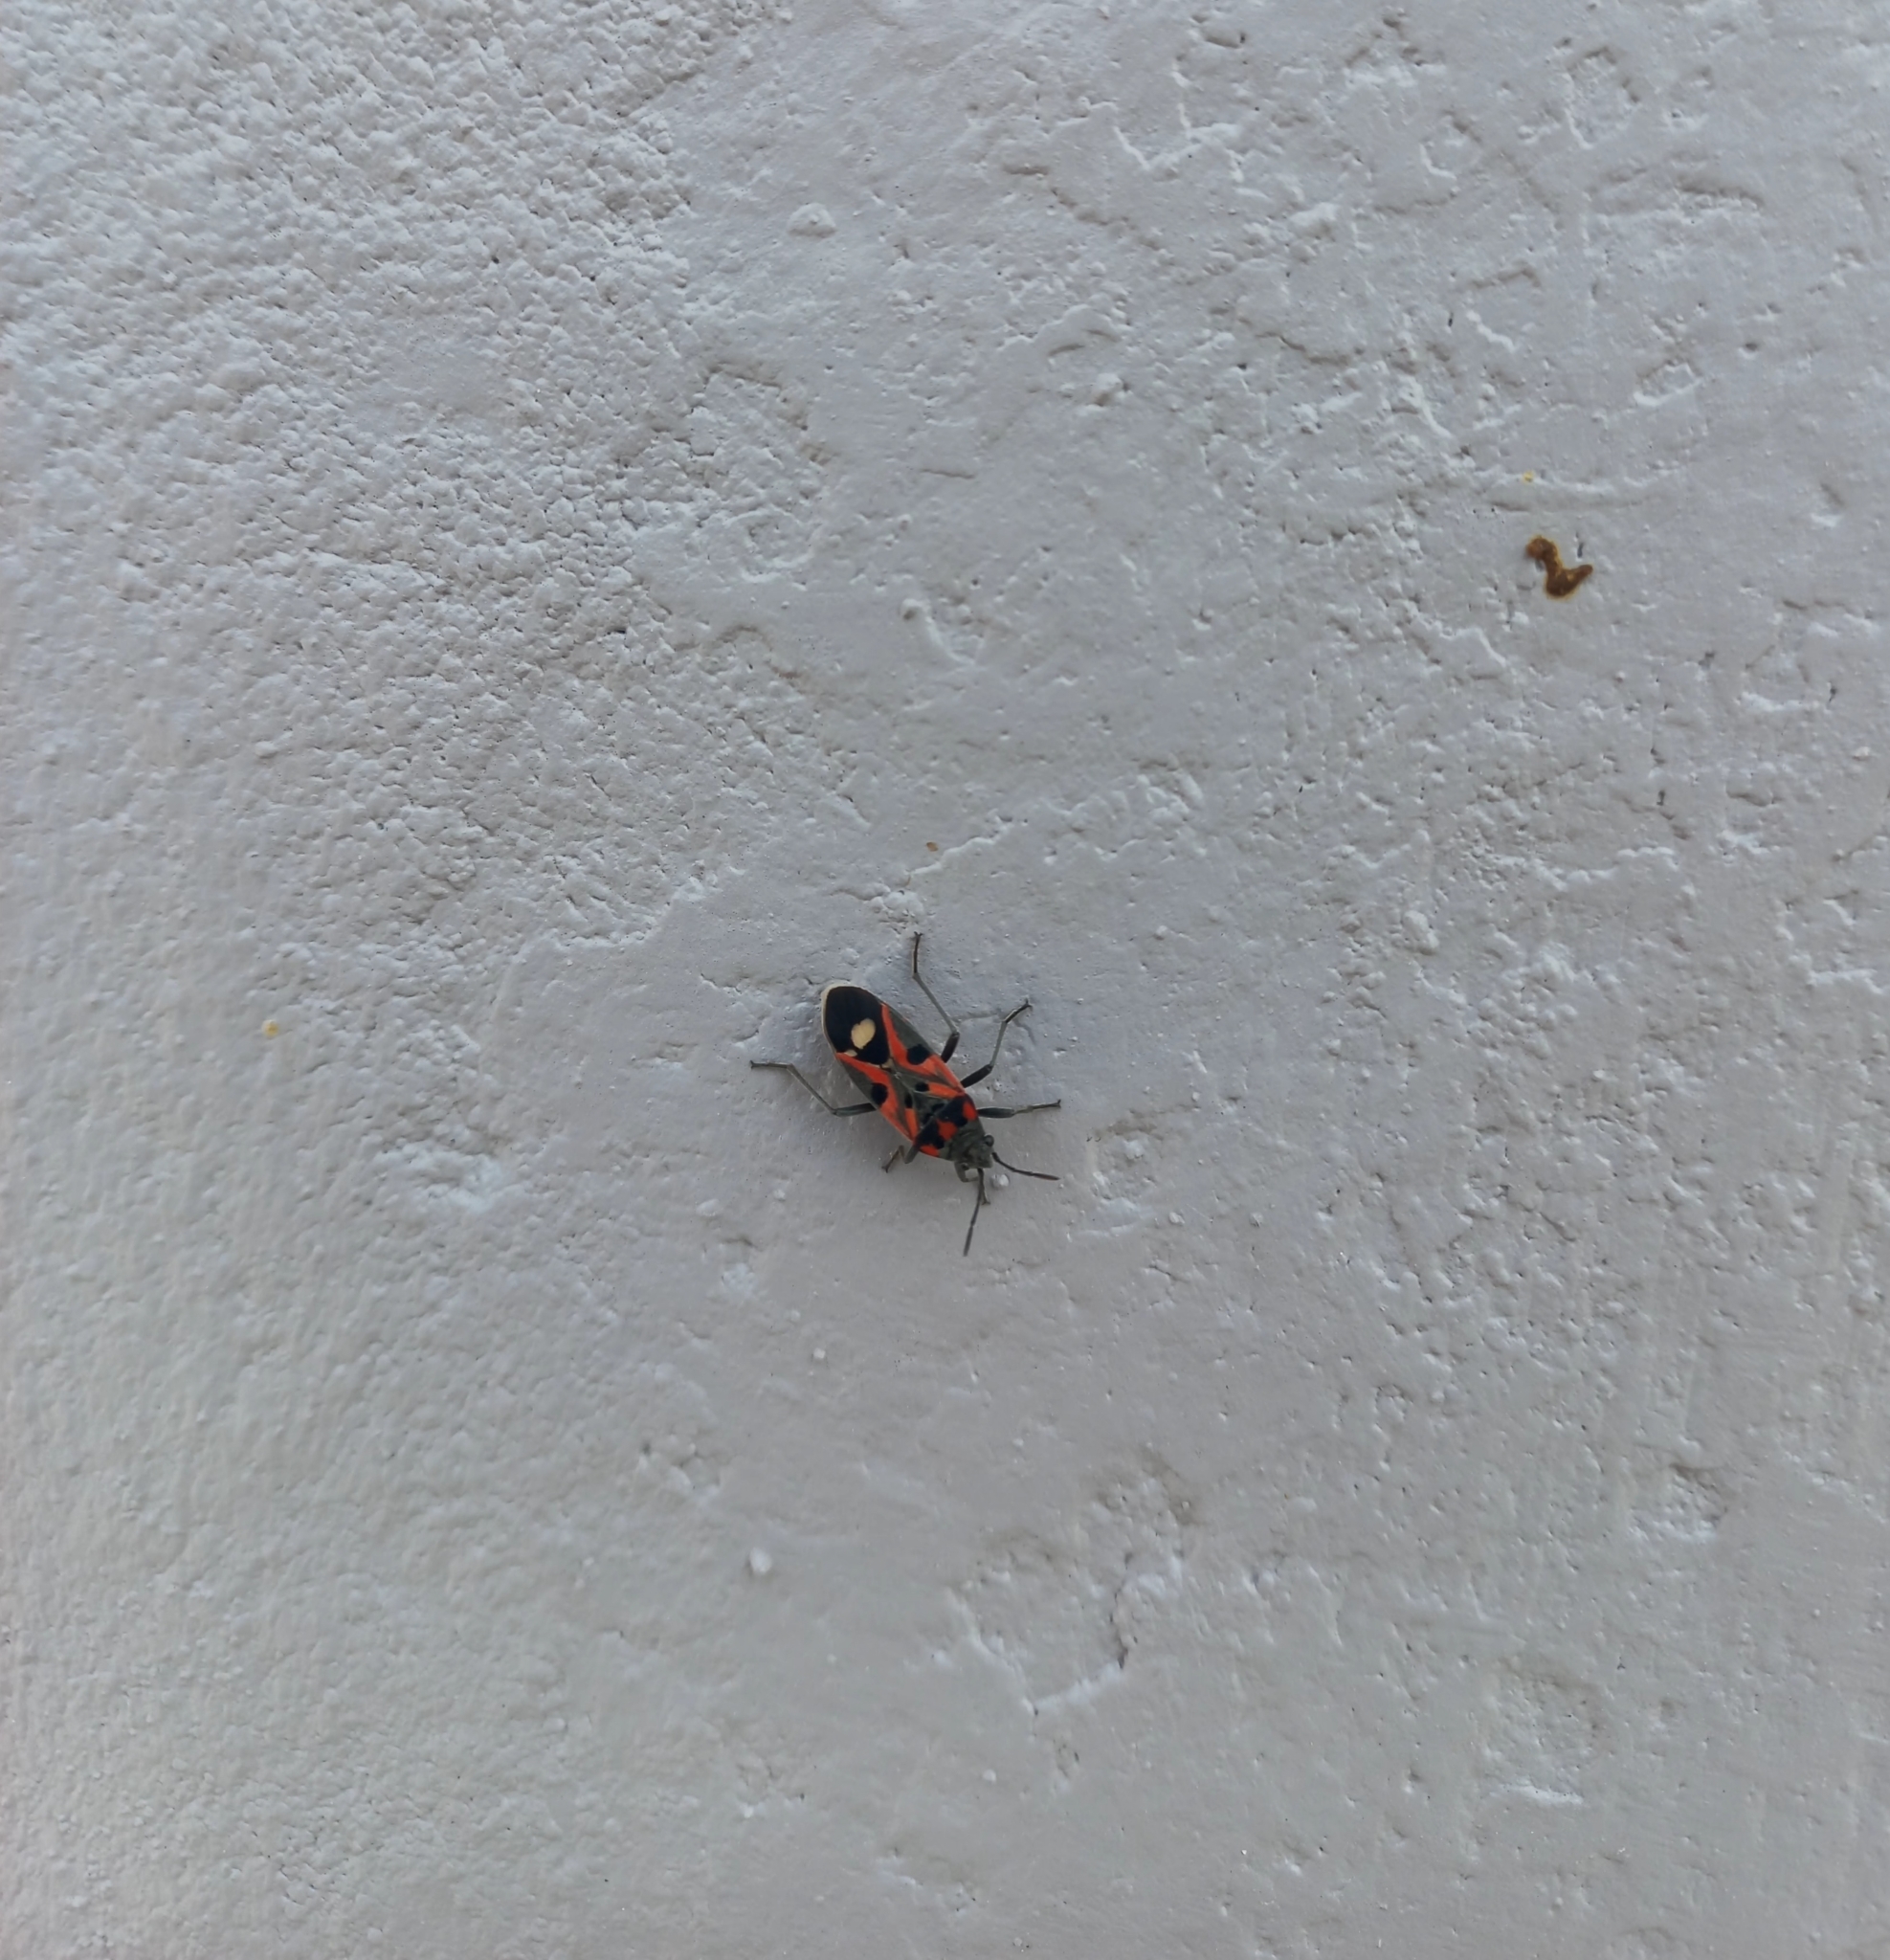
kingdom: Animalia
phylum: Arthropoda
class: Insecta
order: Hemiptera
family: Lygaeidae
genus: Lygaeus
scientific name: Lygaeus alboornatus
